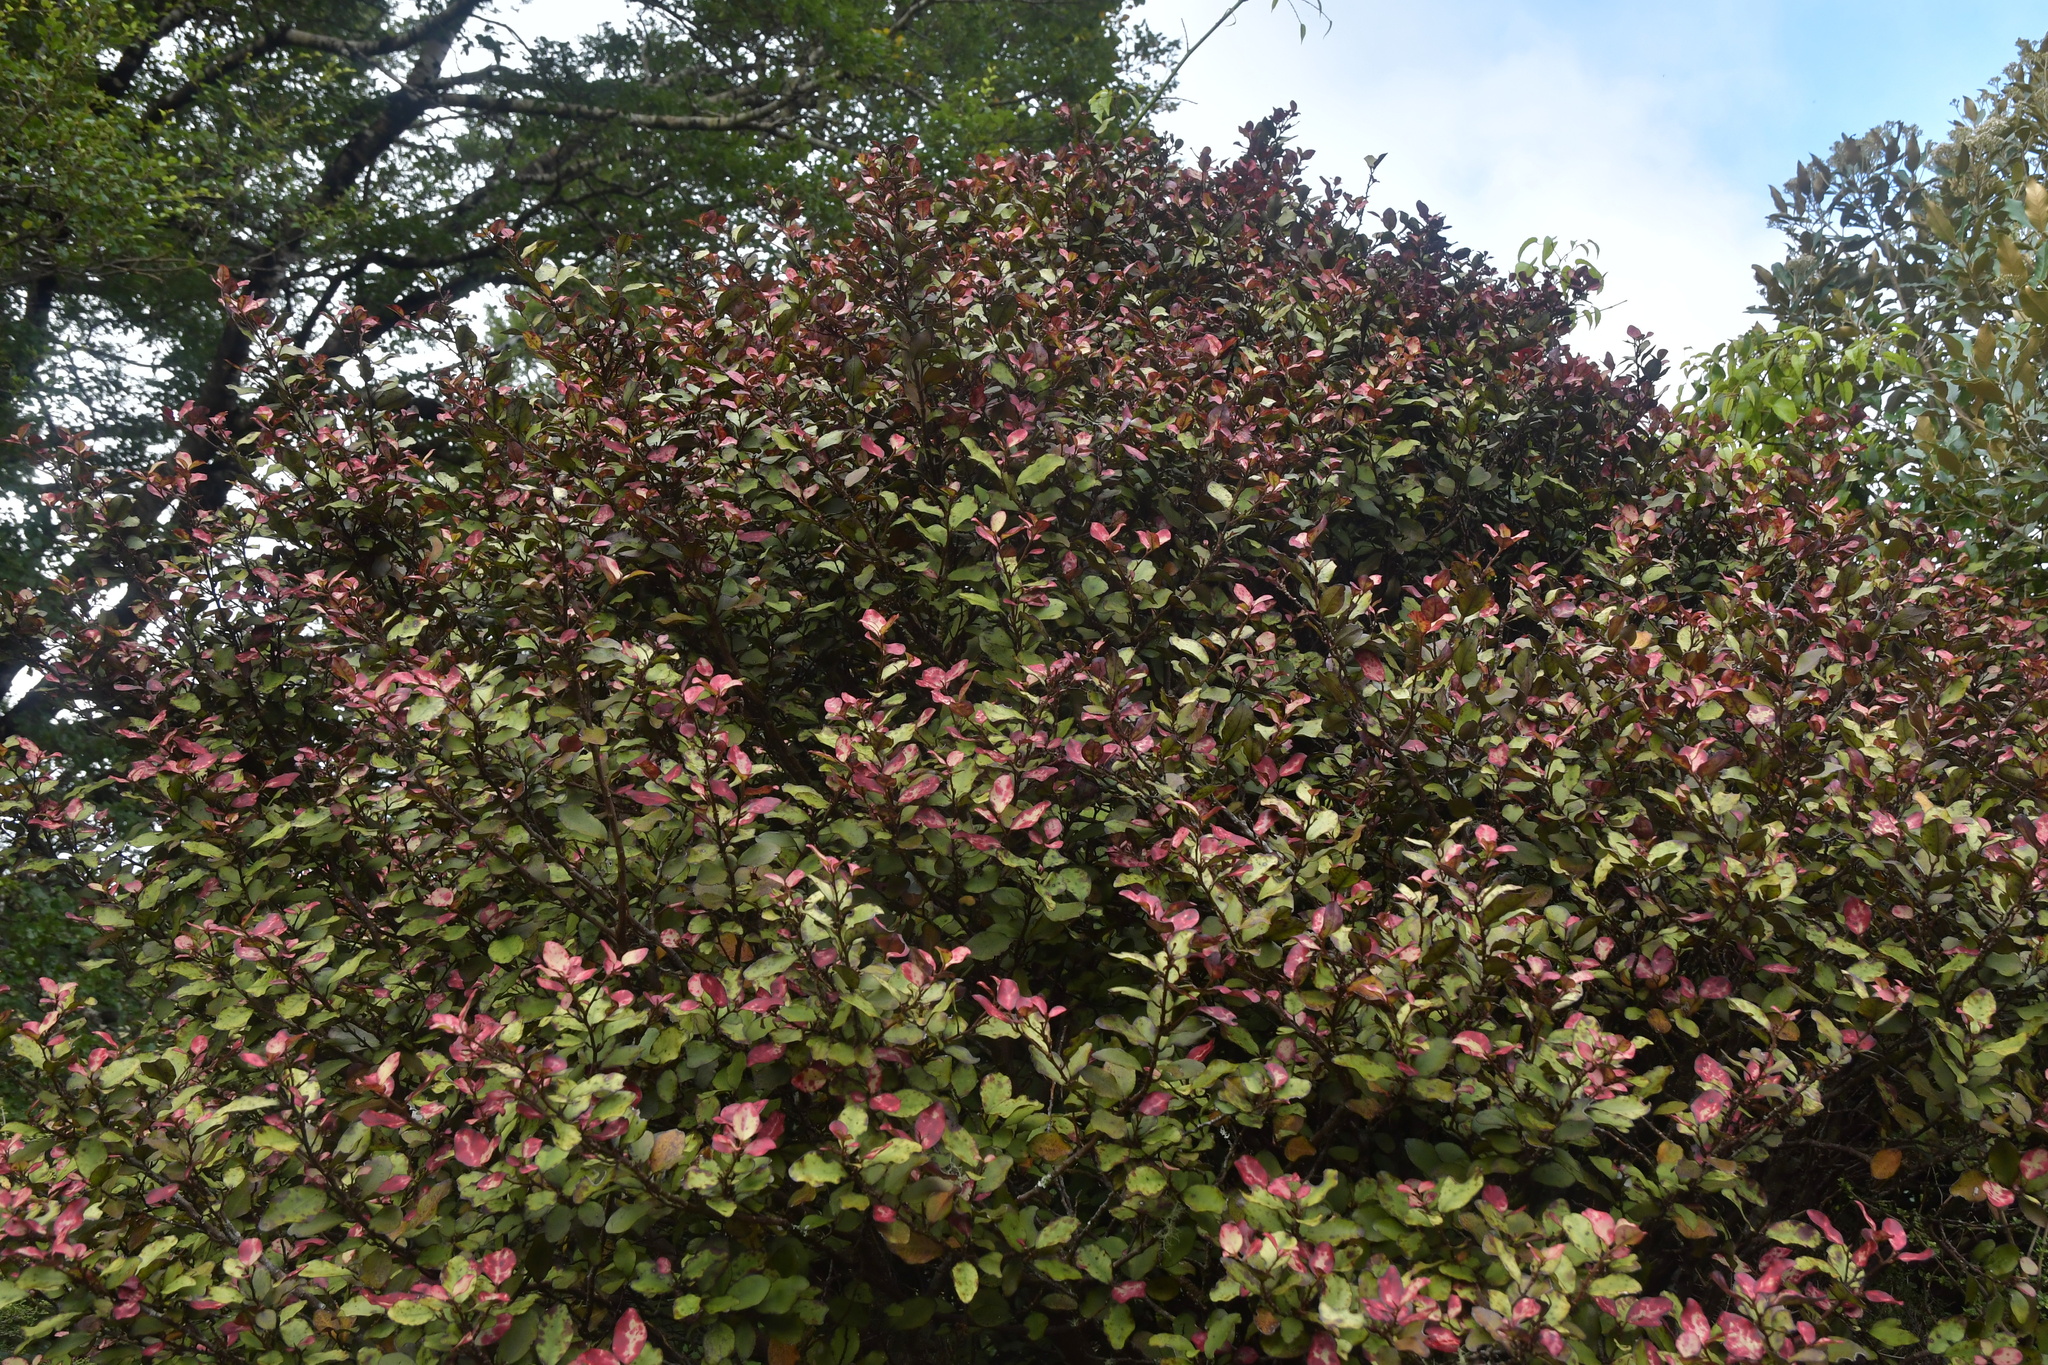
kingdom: Plantae
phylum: Tracheophyta
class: Magnoliopsida
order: Canellales
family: Winteraceae
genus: Pseudowintera
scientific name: Pseudowintera colorata
